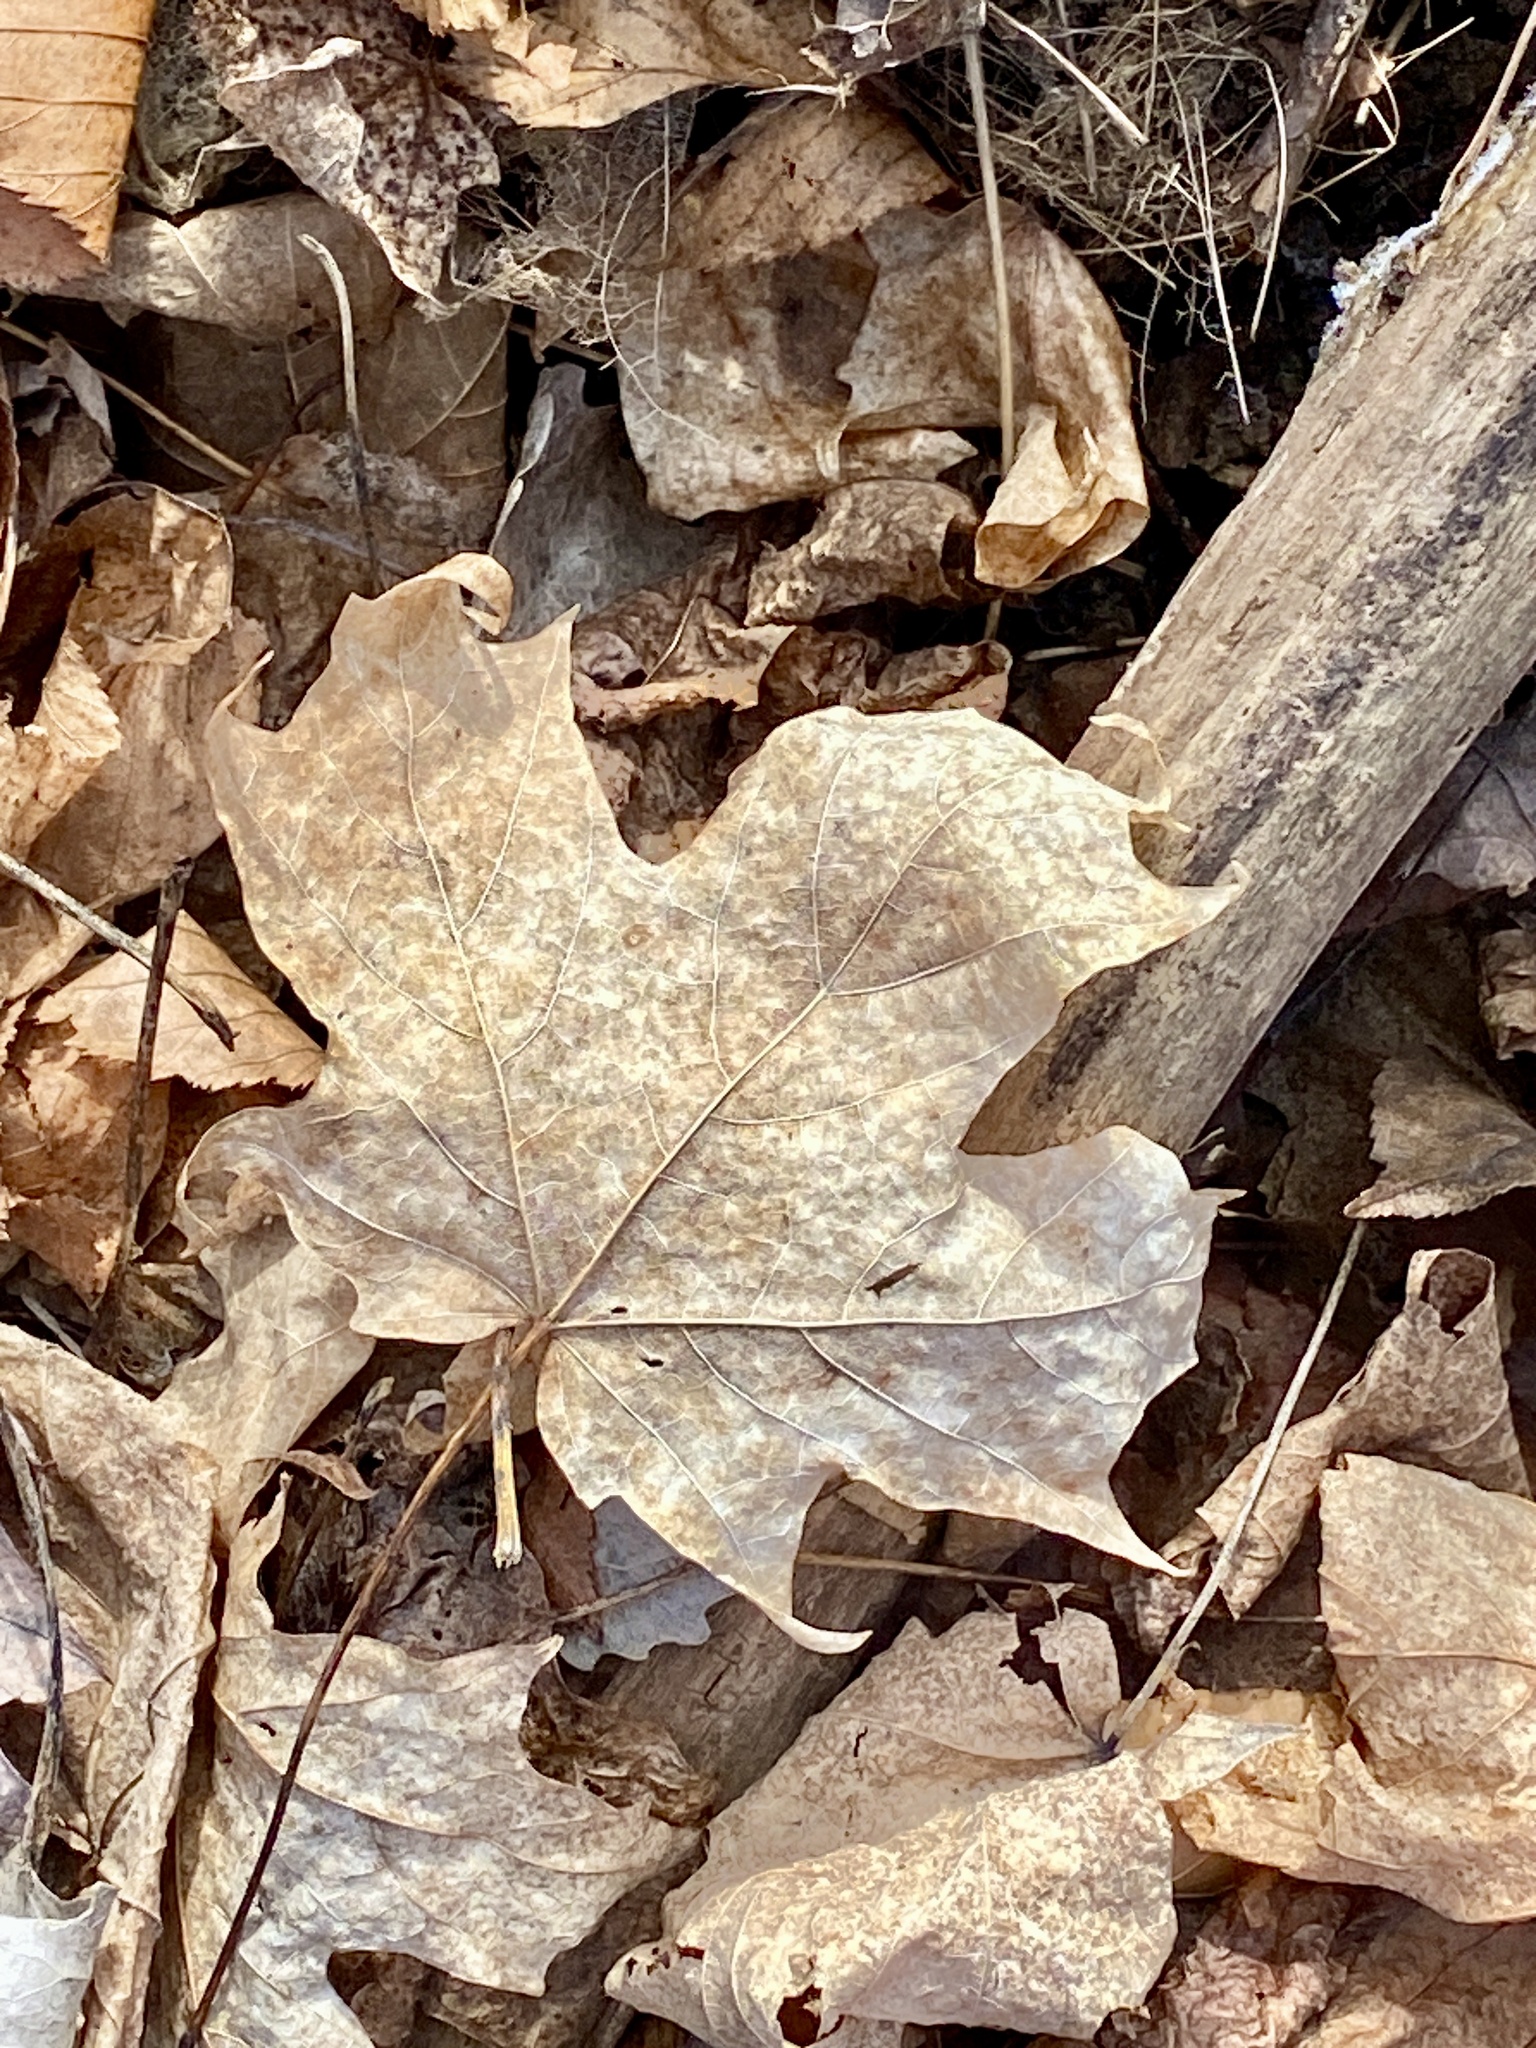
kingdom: Plantae
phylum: Tracheophyta
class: Magnoliopsida
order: Sapindales
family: Sapindaceae
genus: Acer
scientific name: Acer saccharum
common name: Sugar maple
